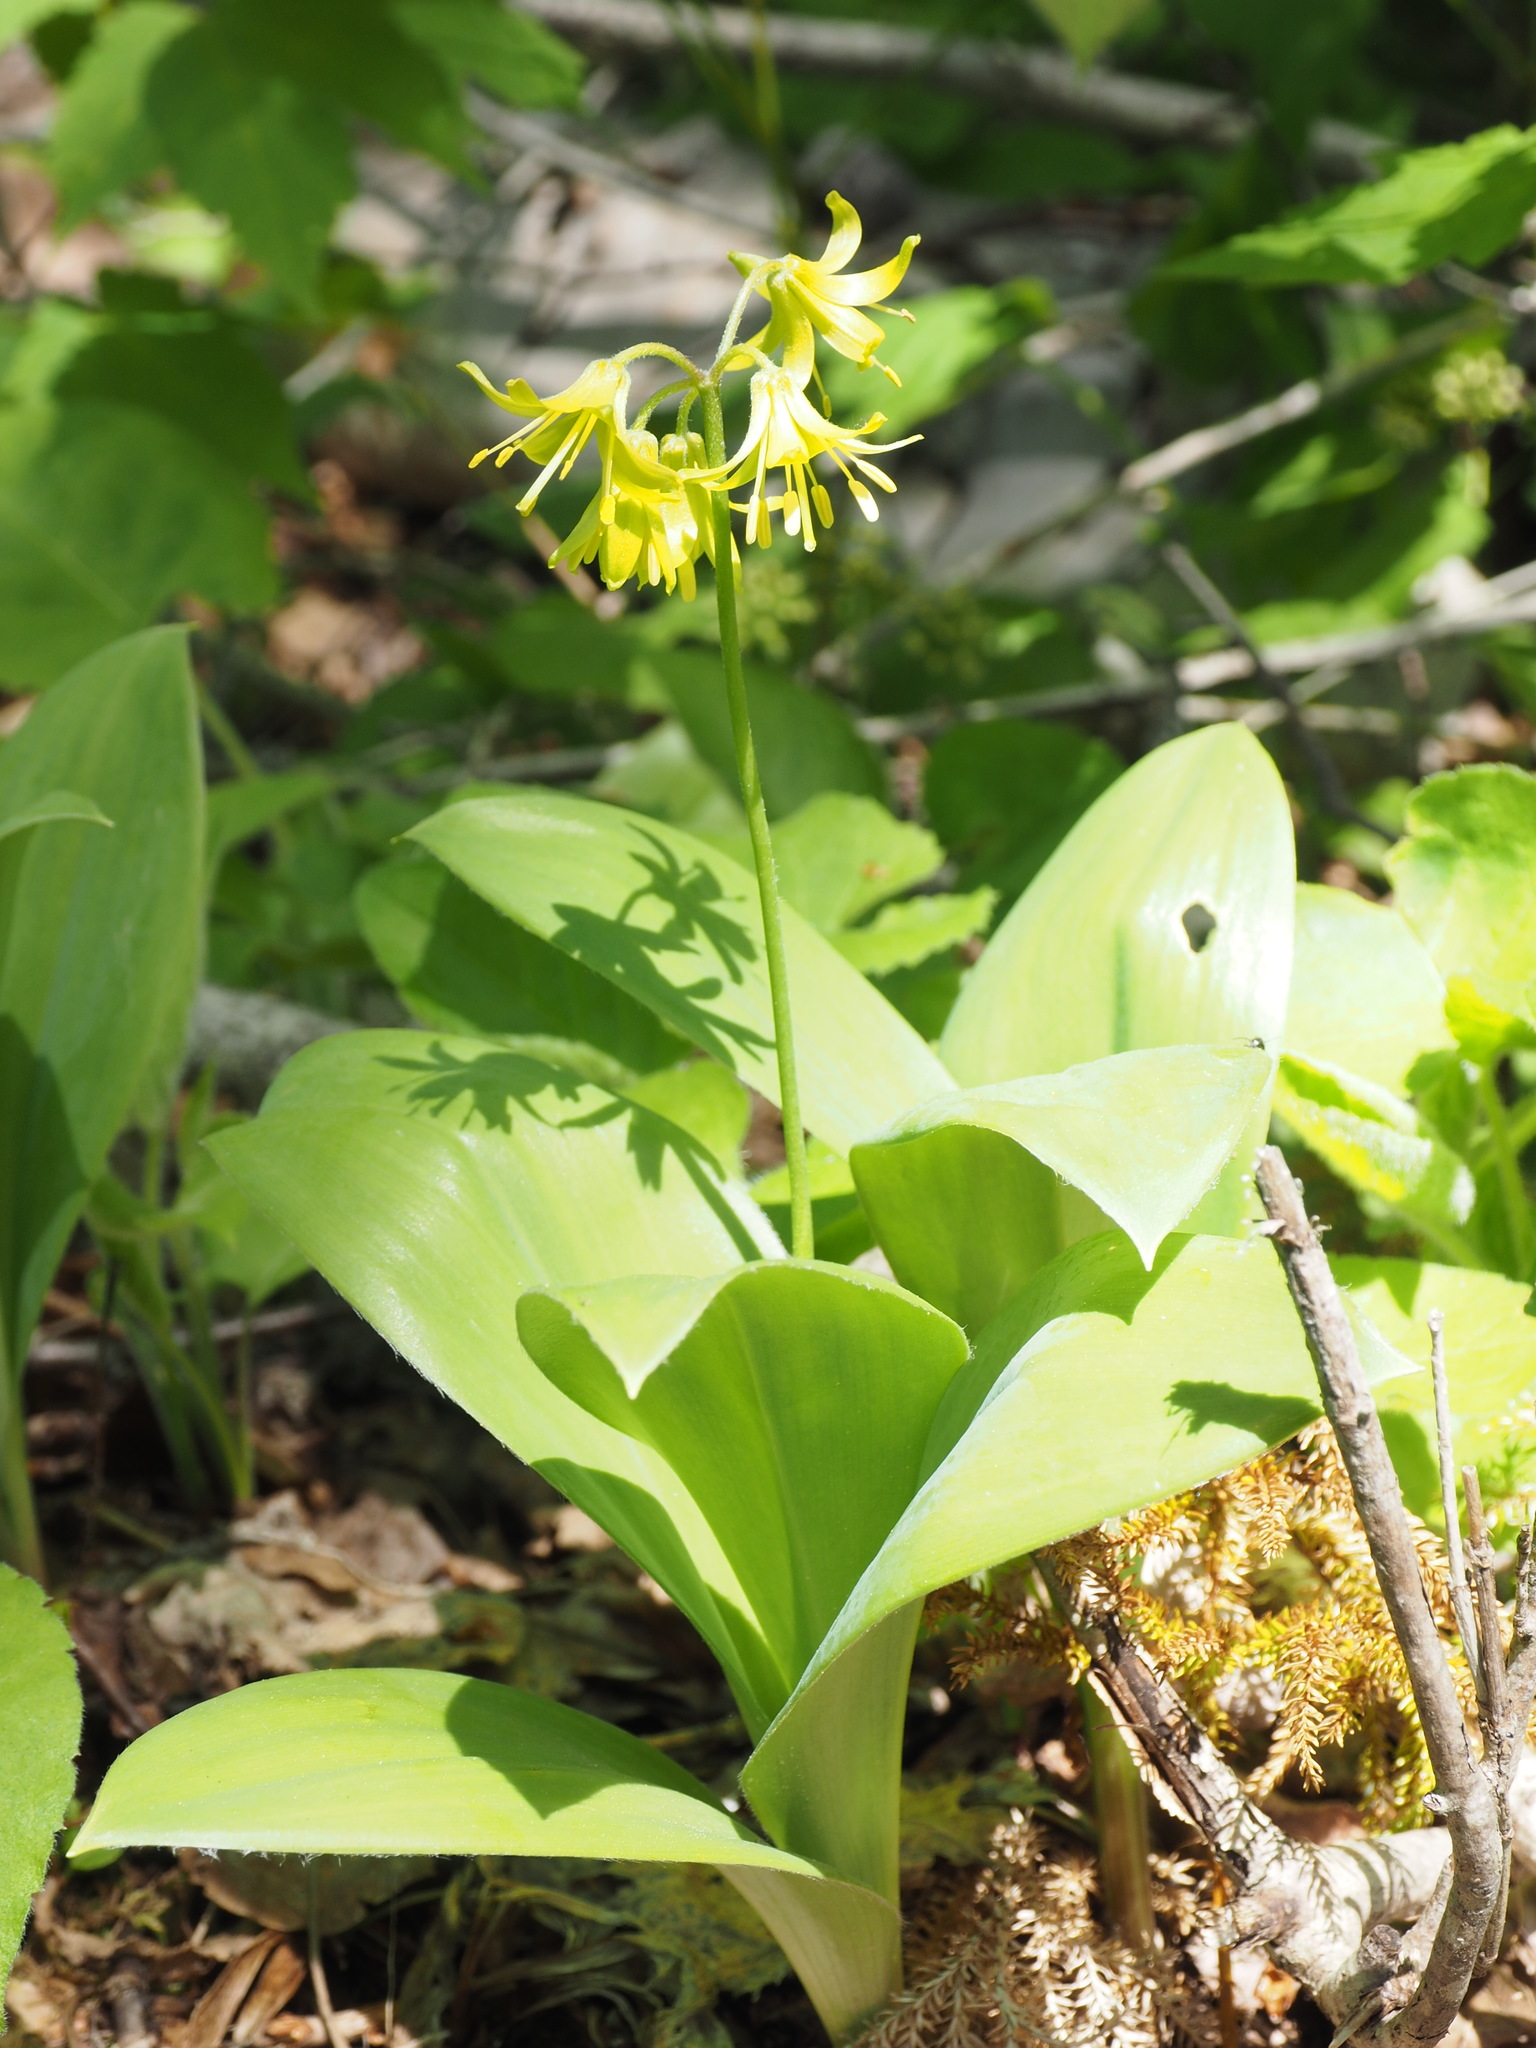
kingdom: Plantae
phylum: Tracheophyta
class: Liliopsida
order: Liliales
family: Liliaceae
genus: Clintonia
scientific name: Clintonia borealis
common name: Yellow clintonia
